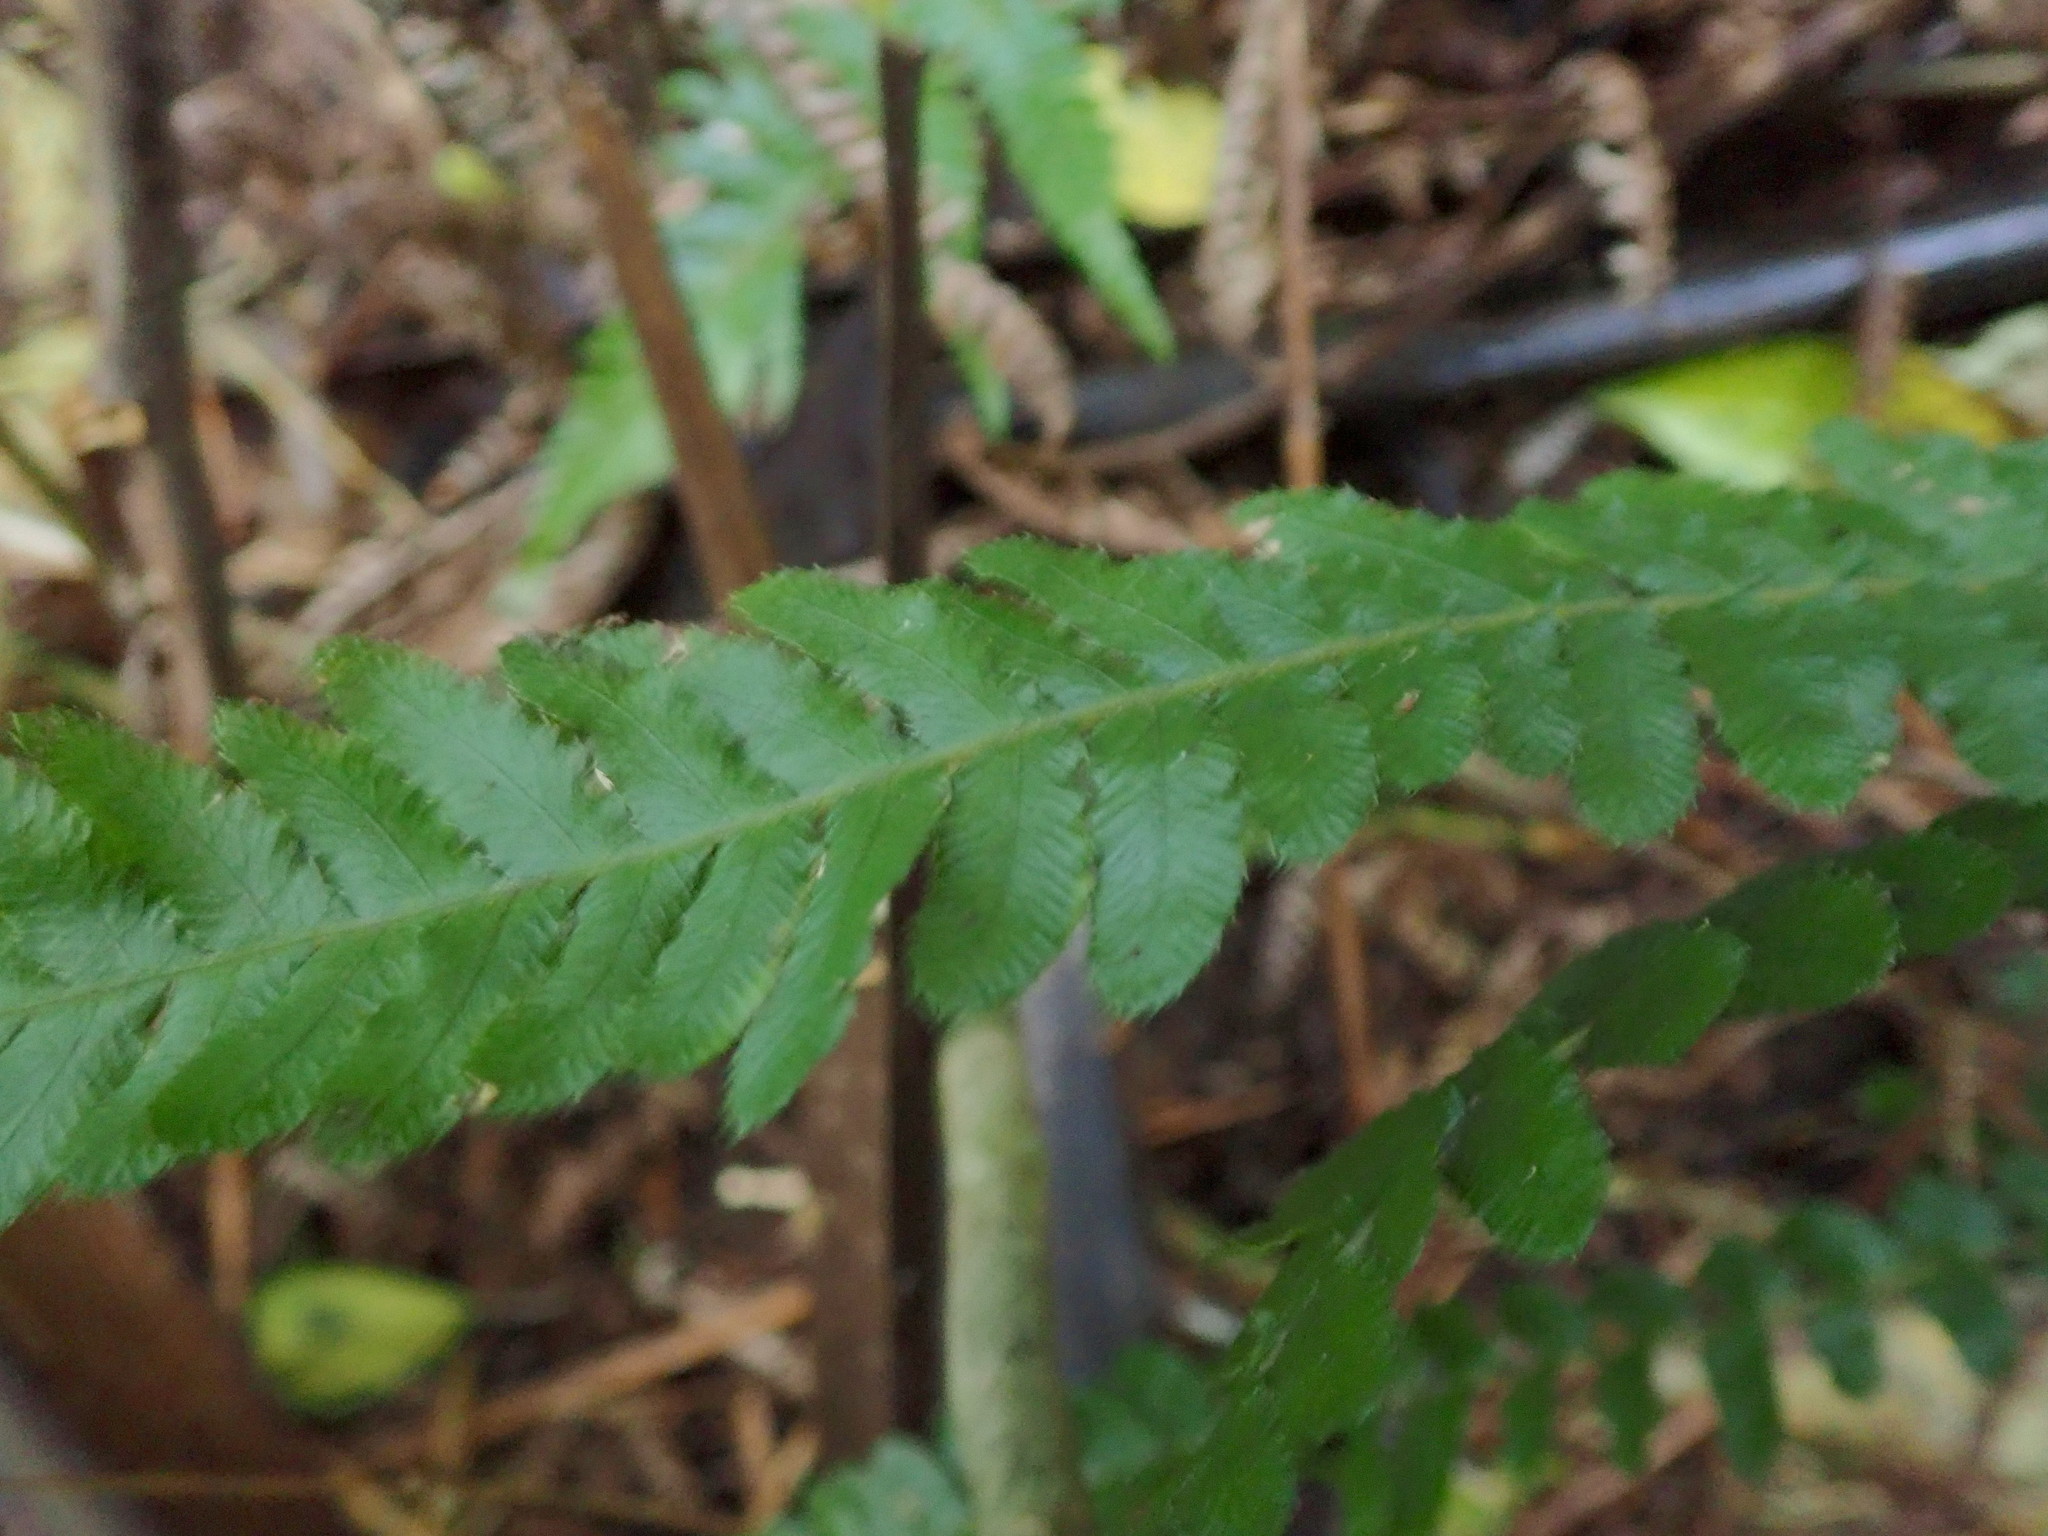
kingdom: Plantae
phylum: Tracheophyta
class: Polypodiopsida
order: Polypodiales
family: Blechnaceae
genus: Doodia
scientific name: Doodia australis
